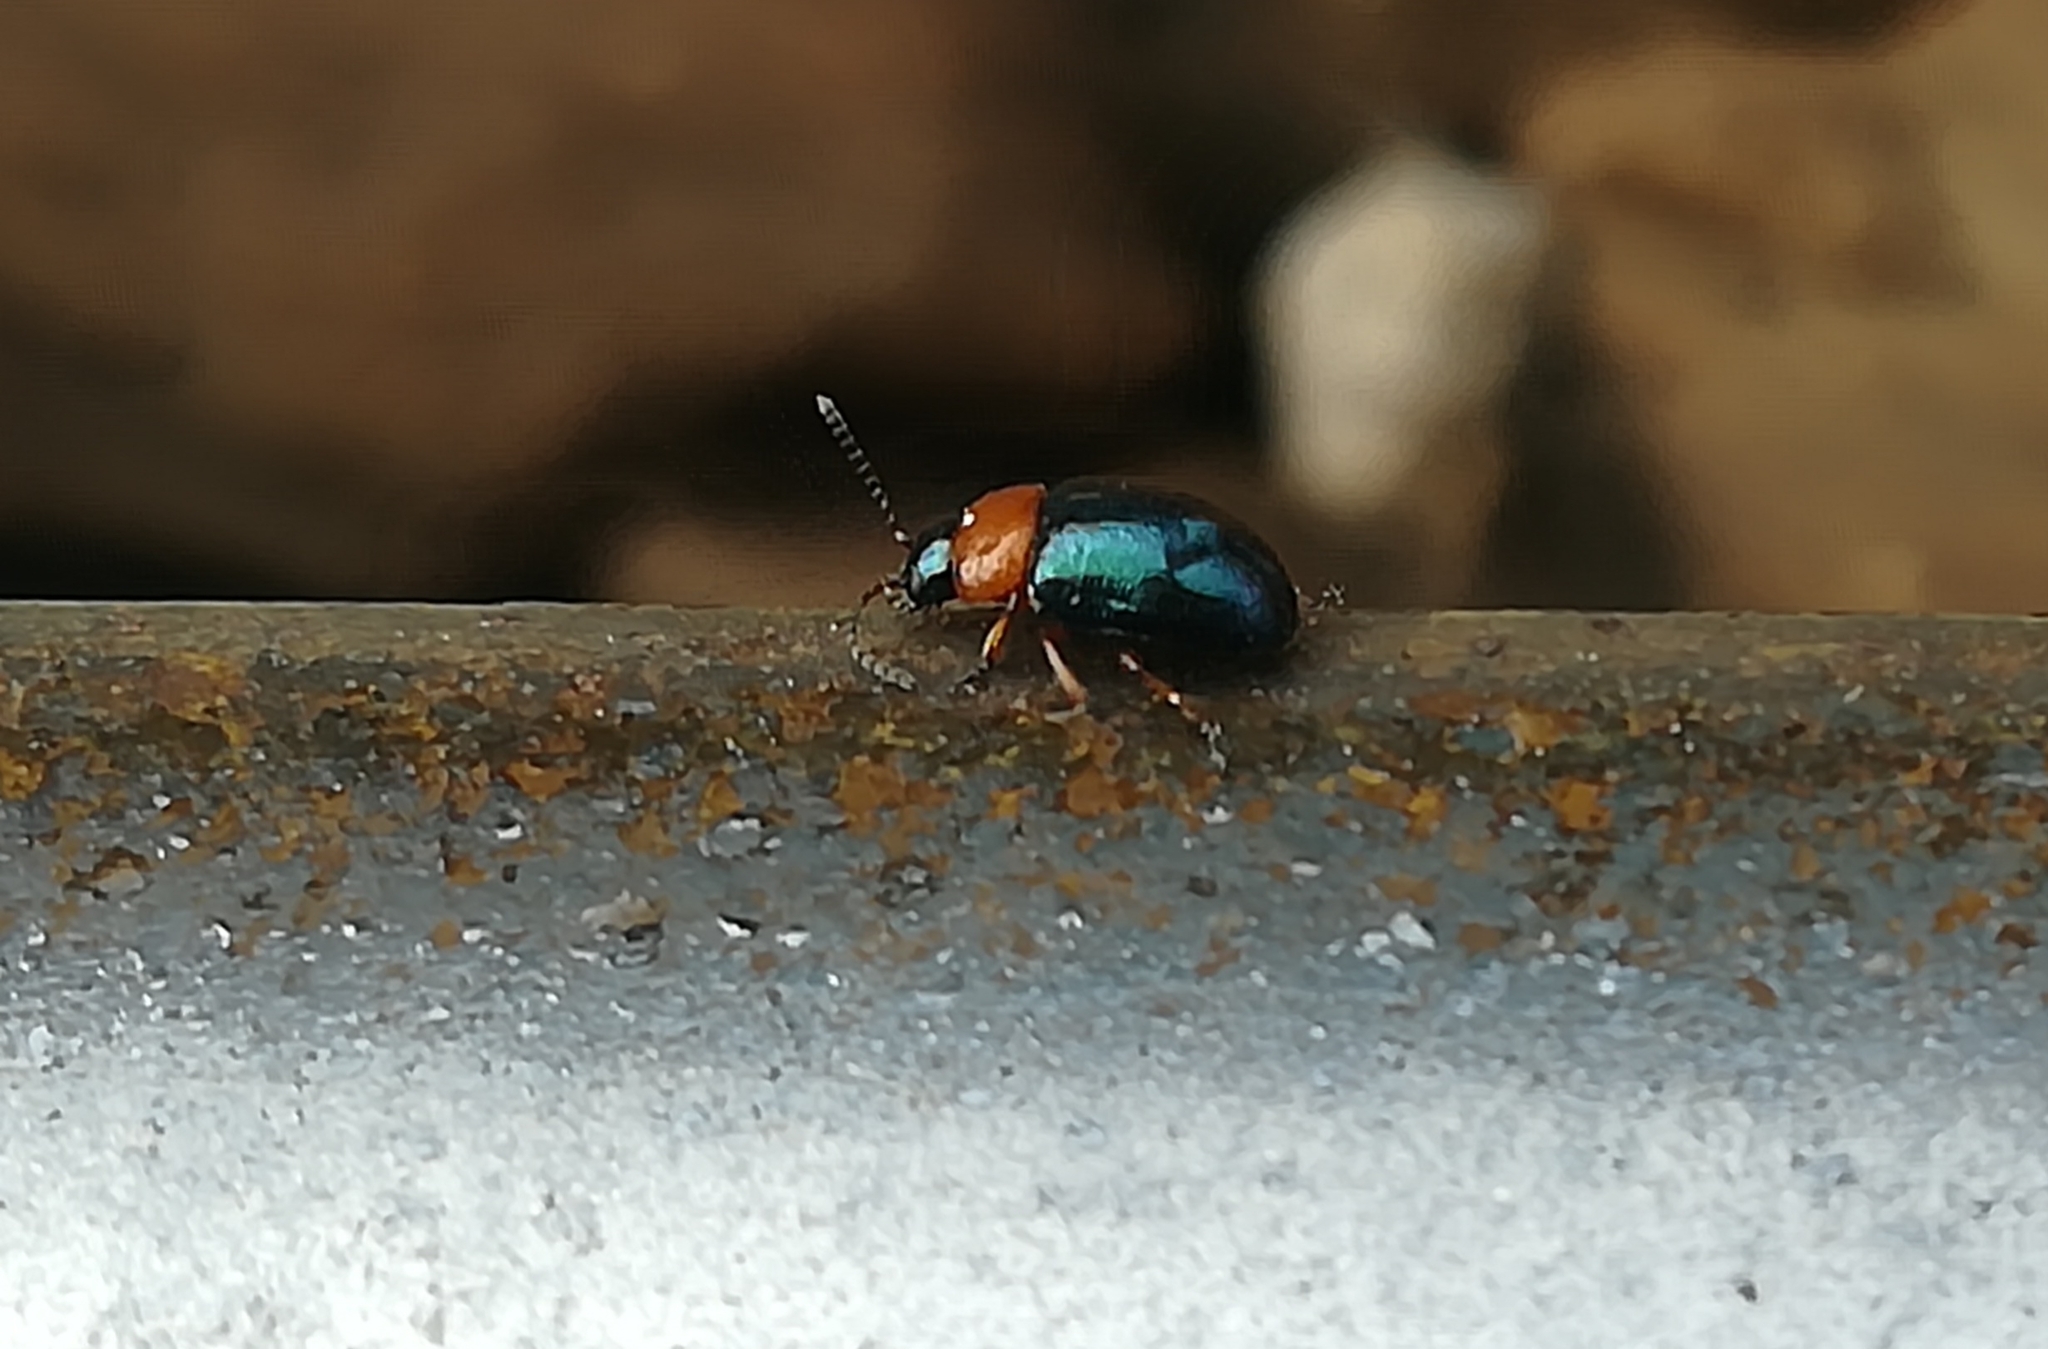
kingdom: Animalia
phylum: Arthropoda
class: Insecta
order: Coleoptera
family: Chrysomelidae
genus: Gastrophysa
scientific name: Gastrophysa polygoni
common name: Knotweed leaf beetle
